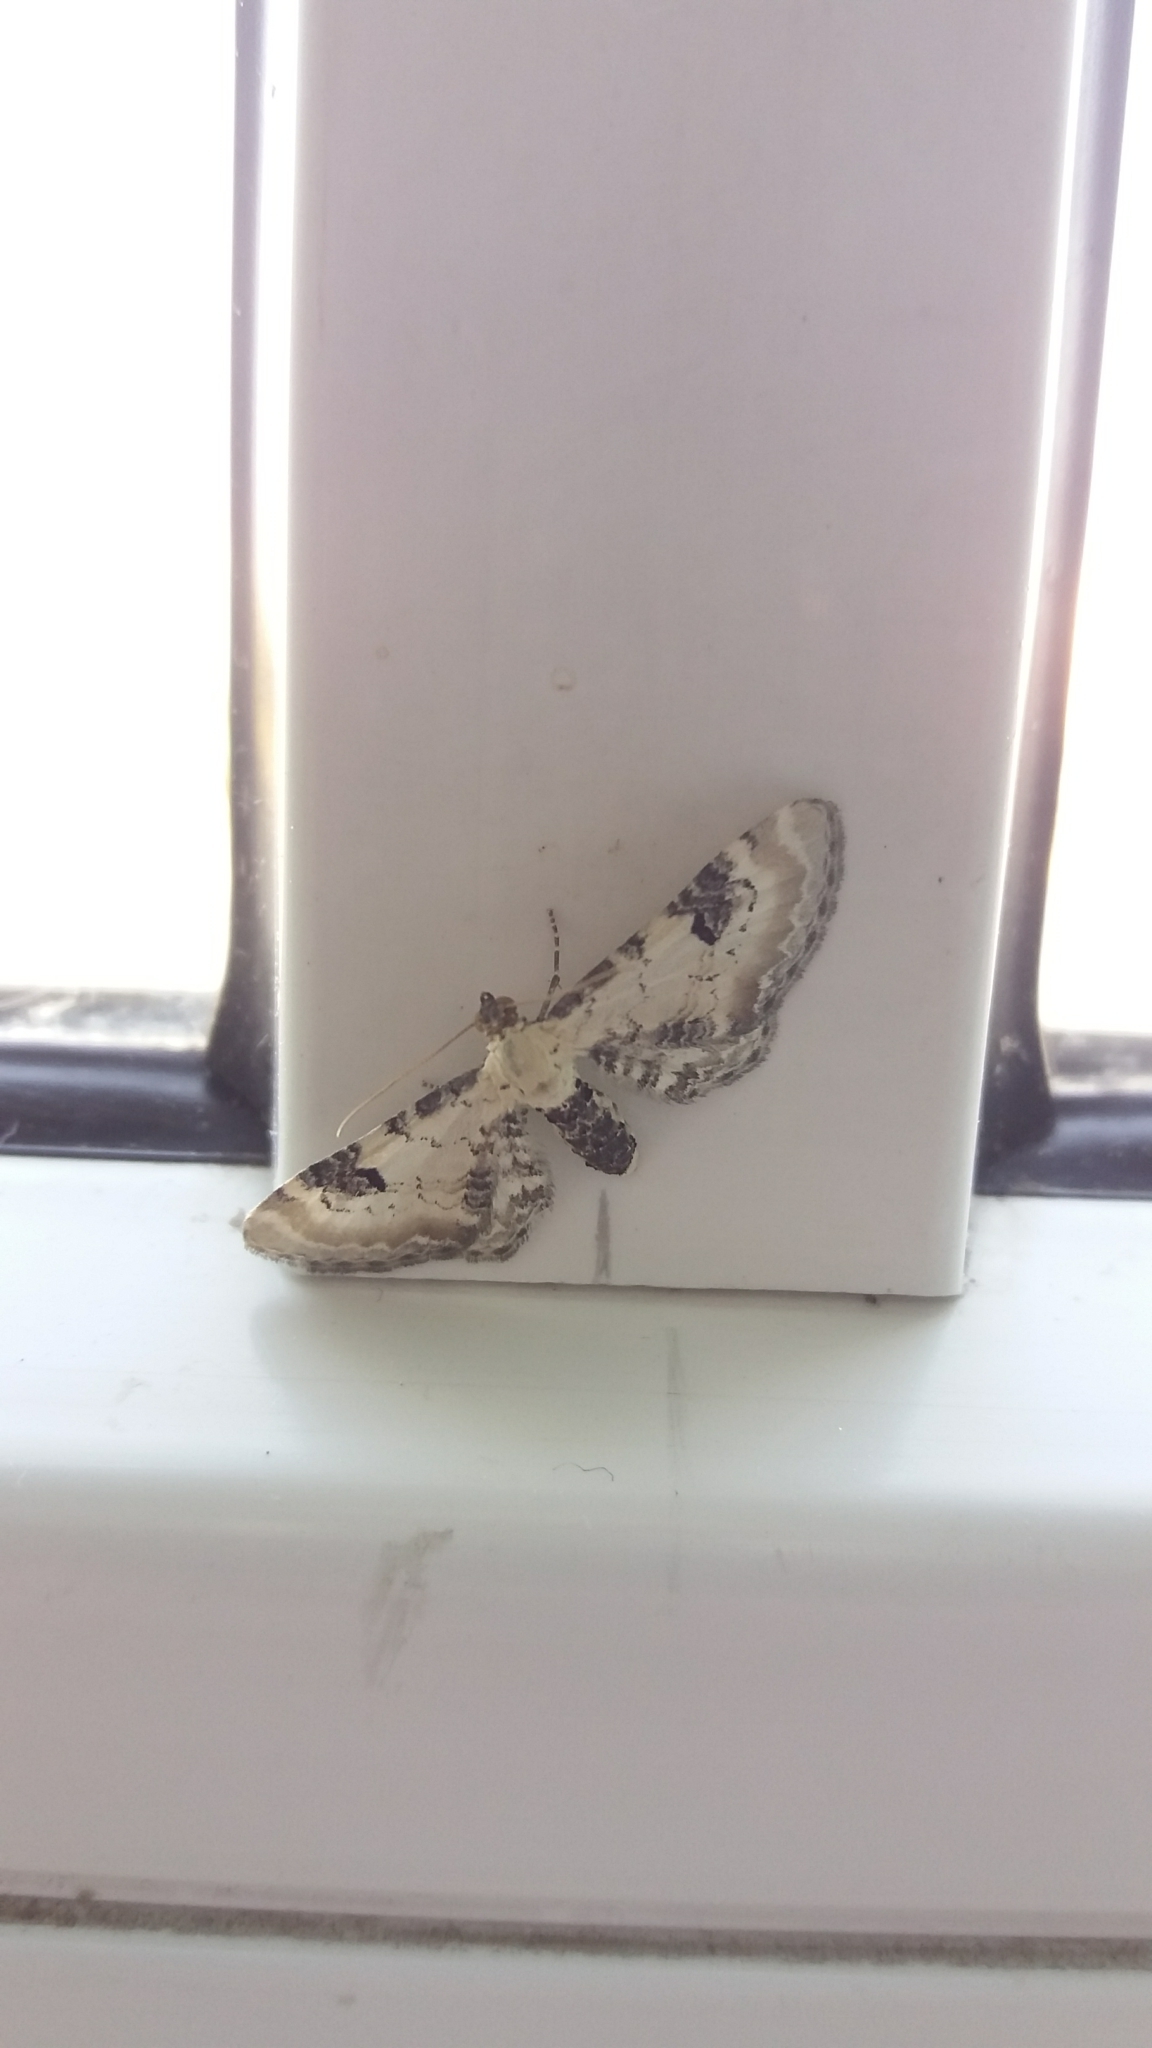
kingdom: Animalia
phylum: Arthropoda
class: Insecta
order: Lepidoptera
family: Geometridae
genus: Eupithecia
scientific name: Eupithecia centaureata
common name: Lime-speck pug
